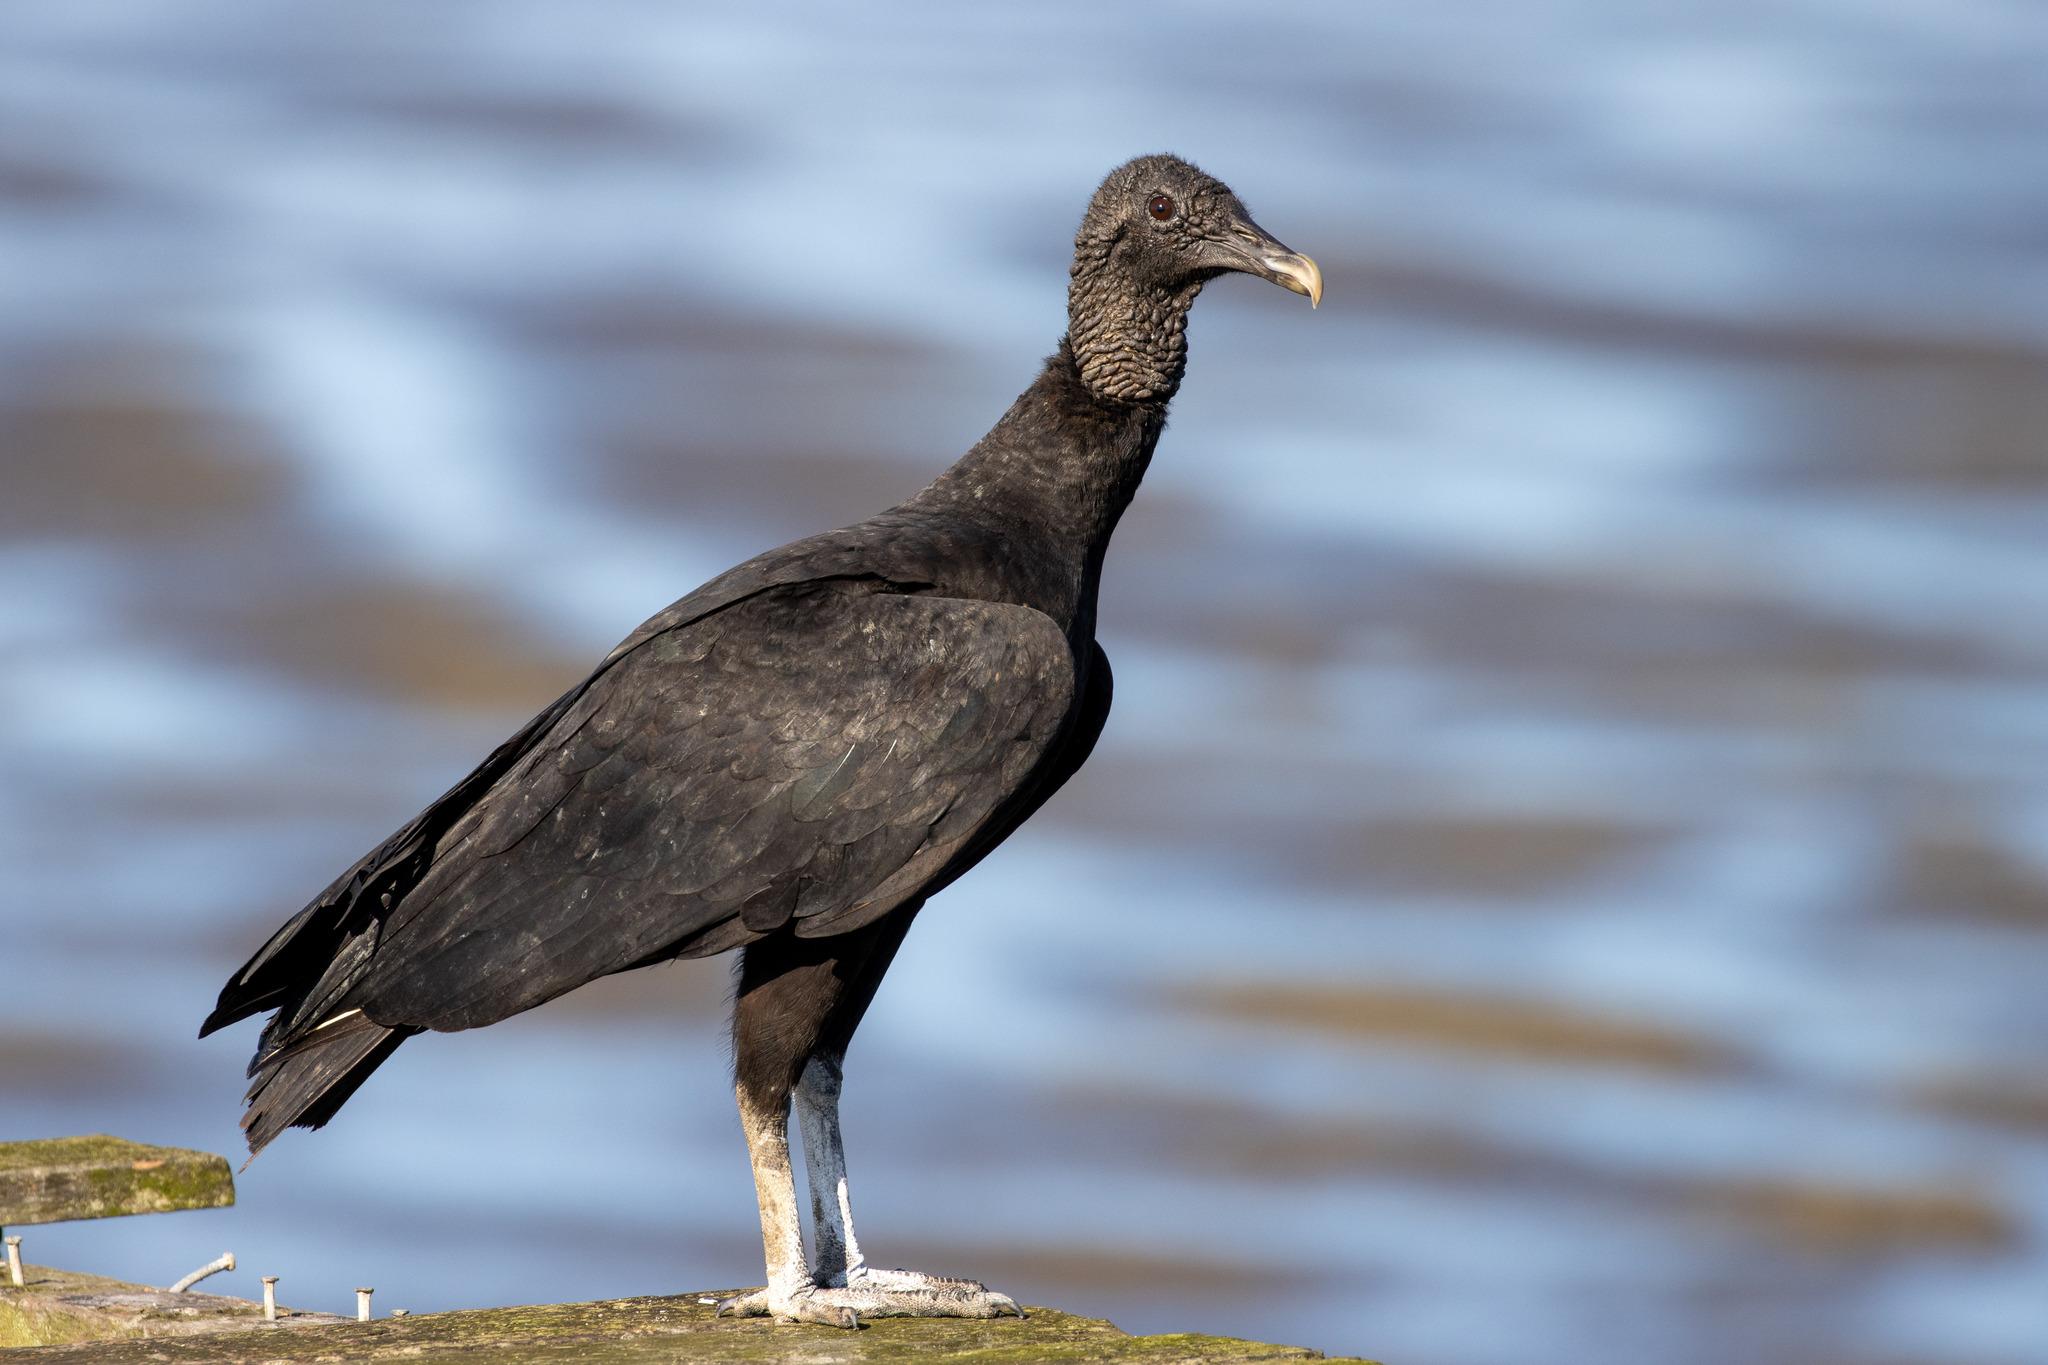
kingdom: Animalia
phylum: Chordata
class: Aves
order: Accipitriformes
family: Cathartidae
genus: Coragyps
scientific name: Coragyps atratus
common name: Black vulture
